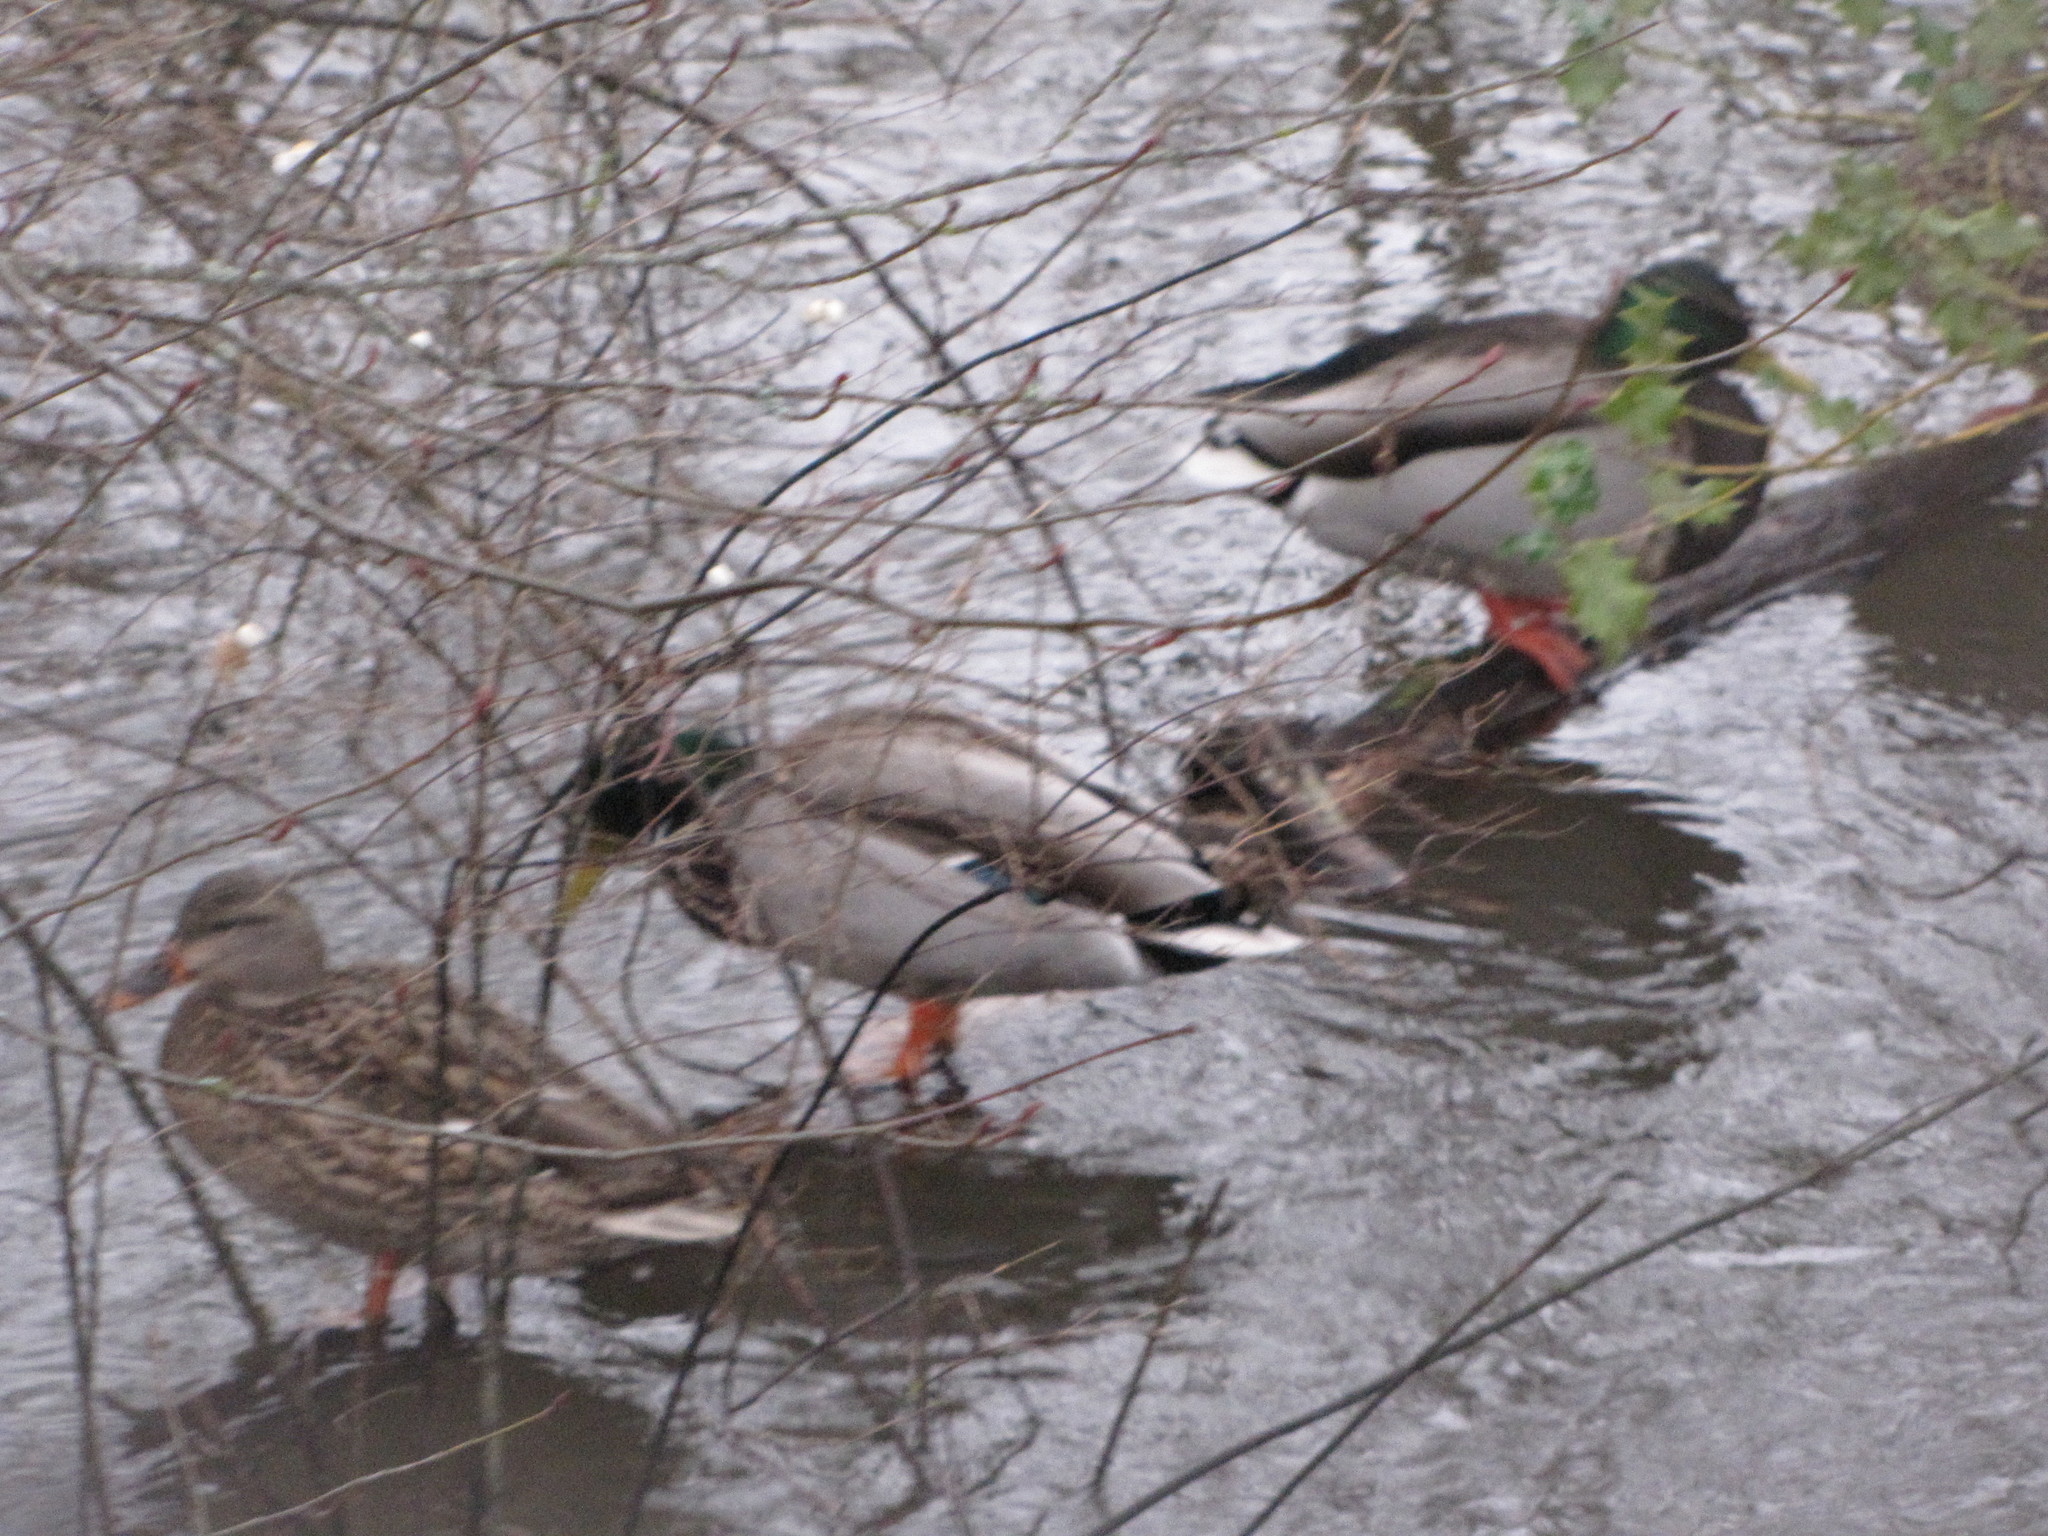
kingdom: Animalia
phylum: Chordata
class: Aves
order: Anseriformes
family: Anatidae
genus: Anas
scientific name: Anas platyrhynchos
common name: Mallard
